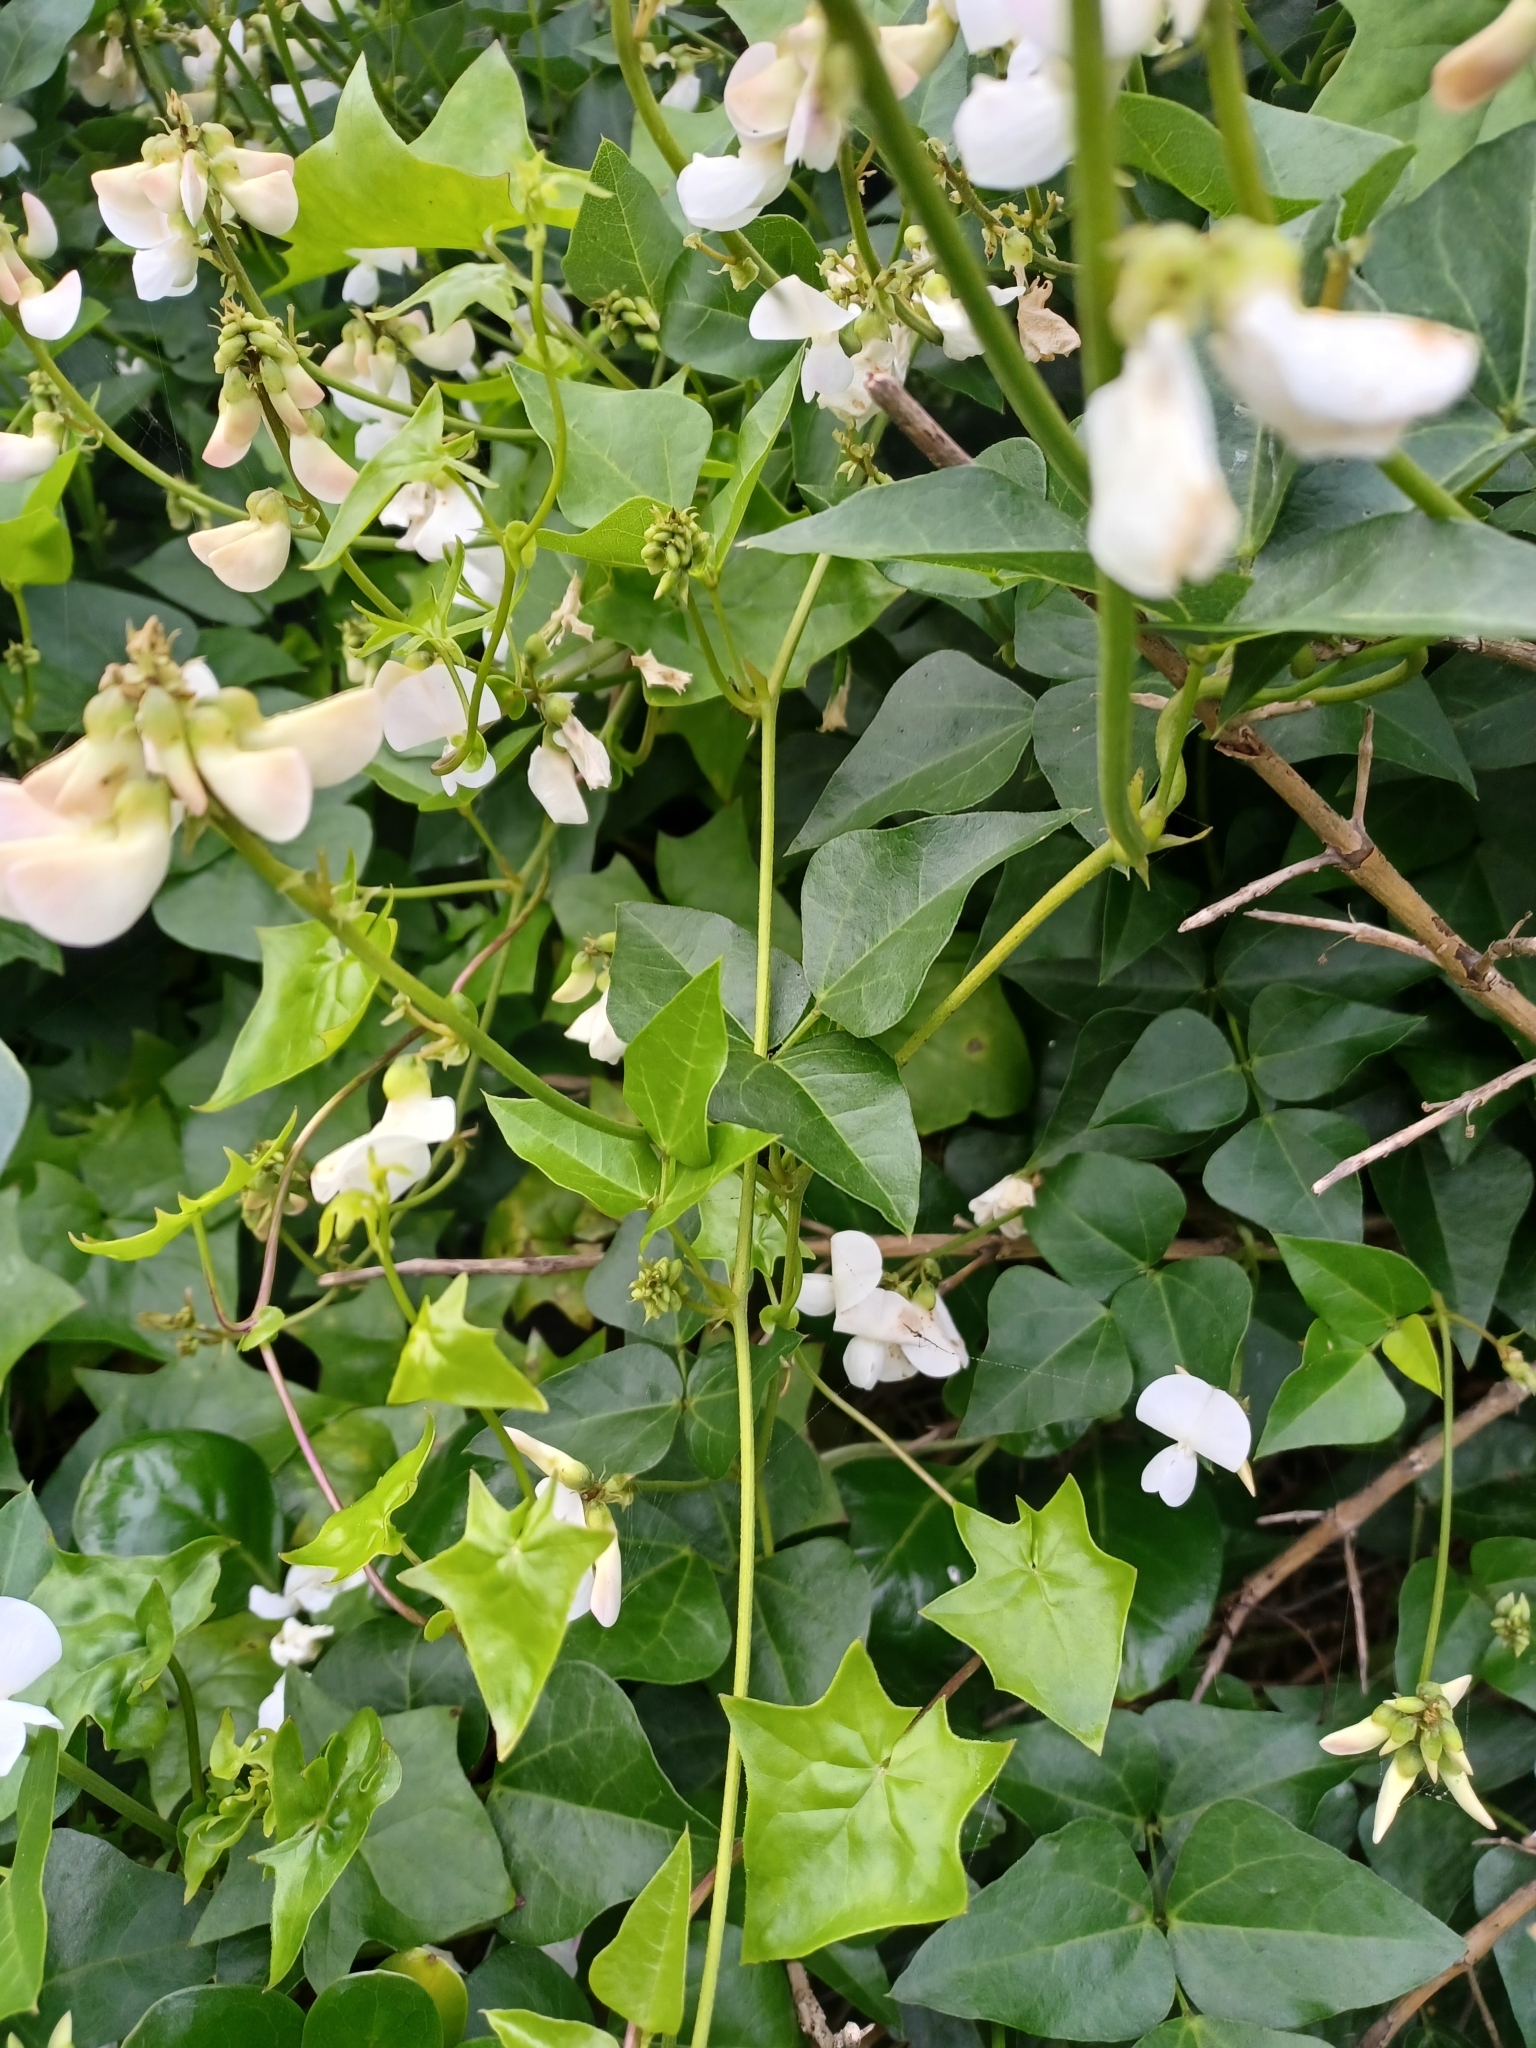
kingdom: Plantae
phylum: Tracheophyta
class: Magnoliopsida
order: Fabales
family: Fabaceae
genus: Dipogon
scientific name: Dipogon lignosus
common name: Okie bean
